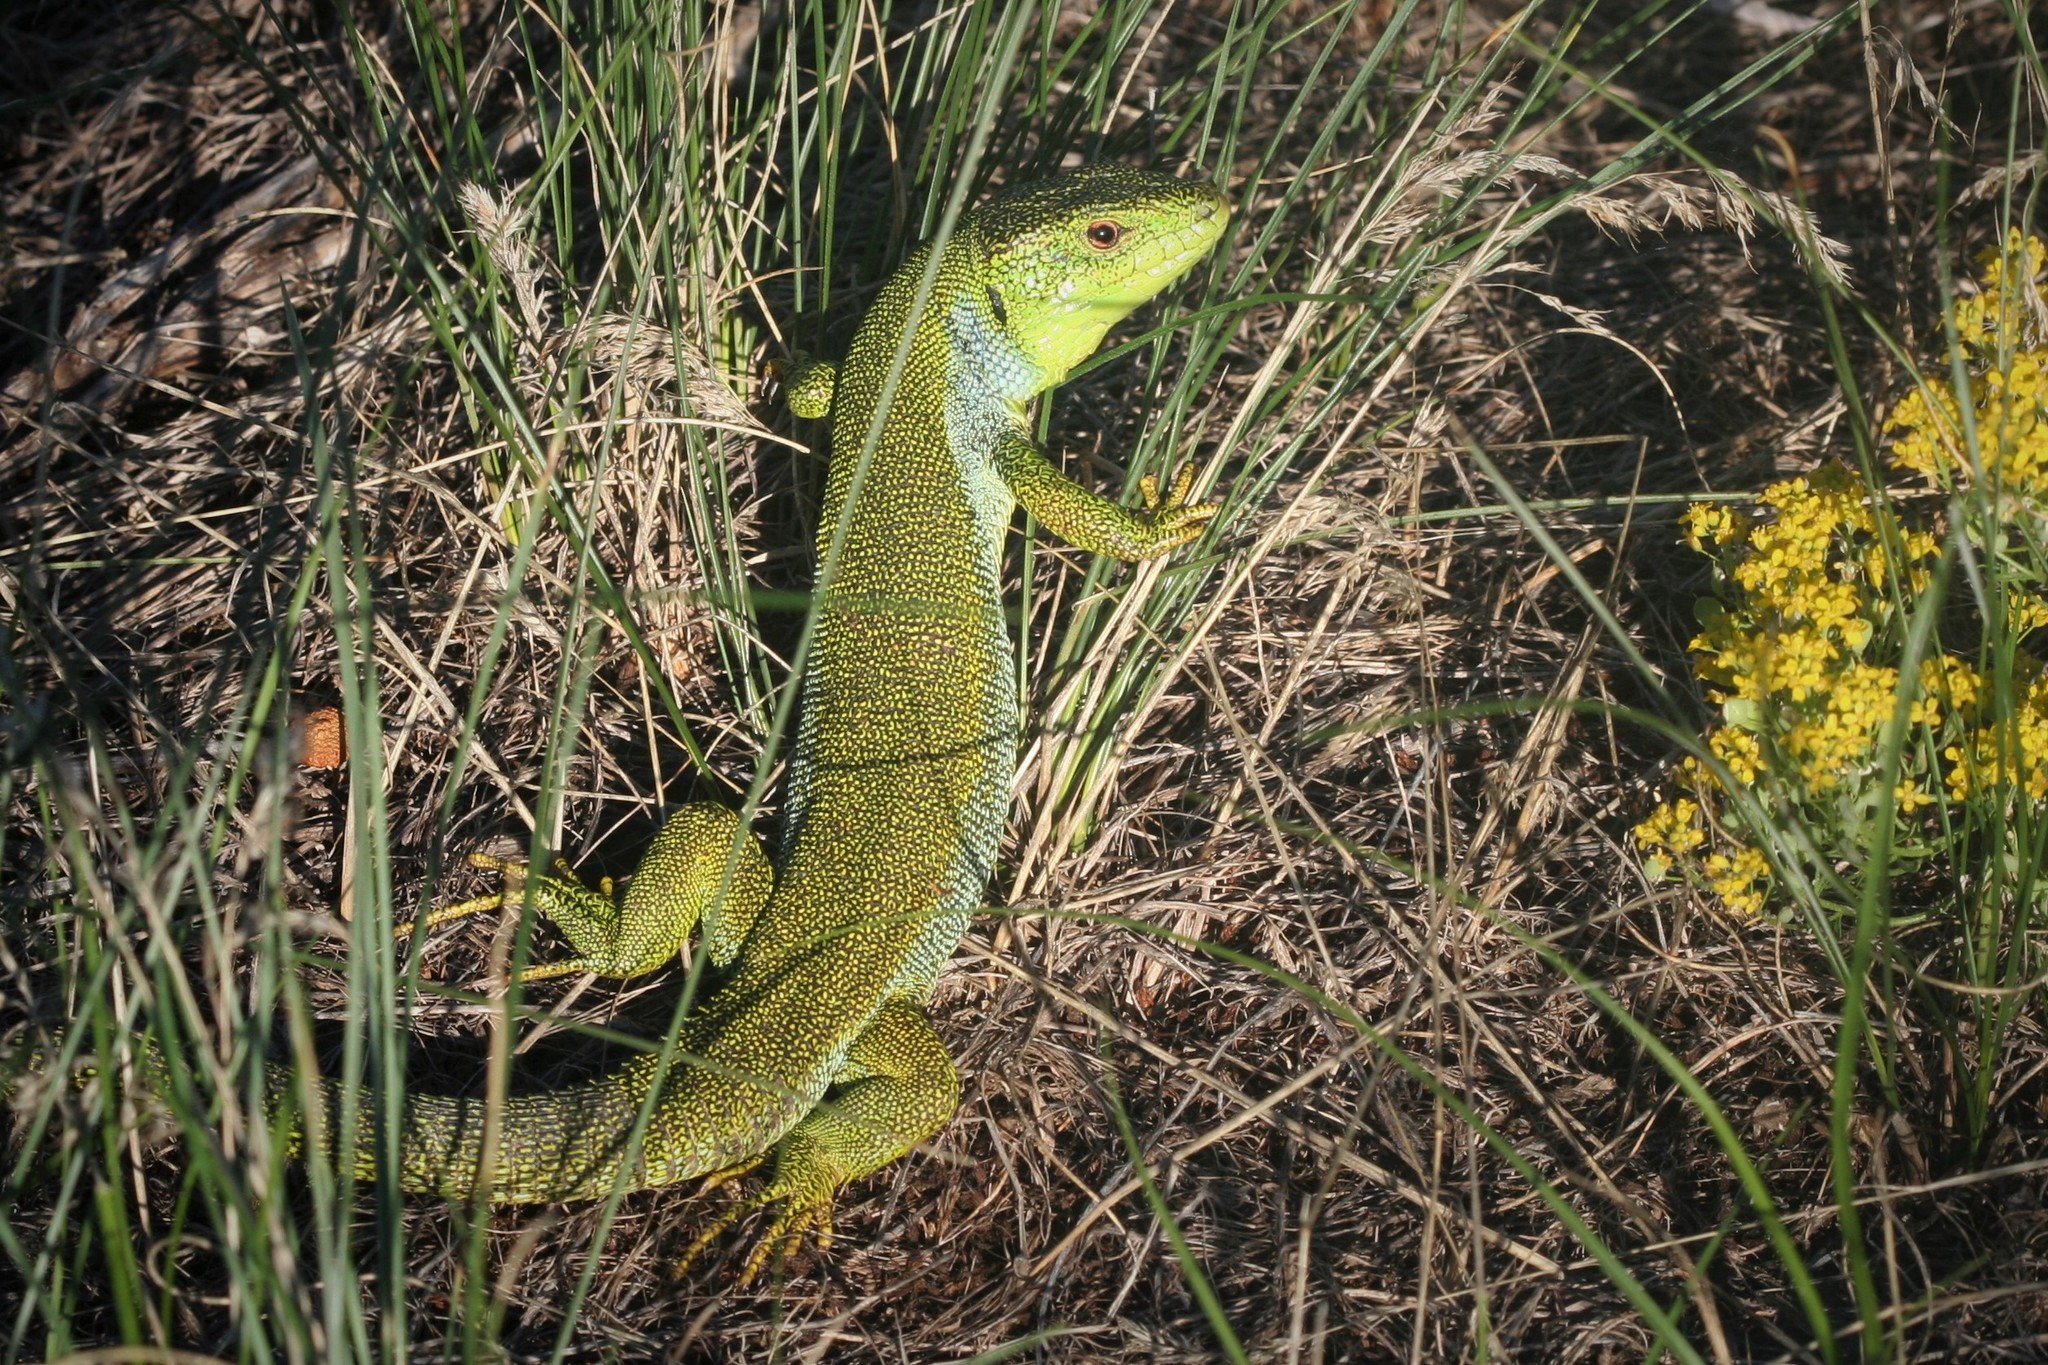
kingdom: Animalia
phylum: Chordata
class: Squamata
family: Lacertidae
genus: Lacerta
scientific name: Lacerta diplochondrodes
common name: Rhodos green lizard
